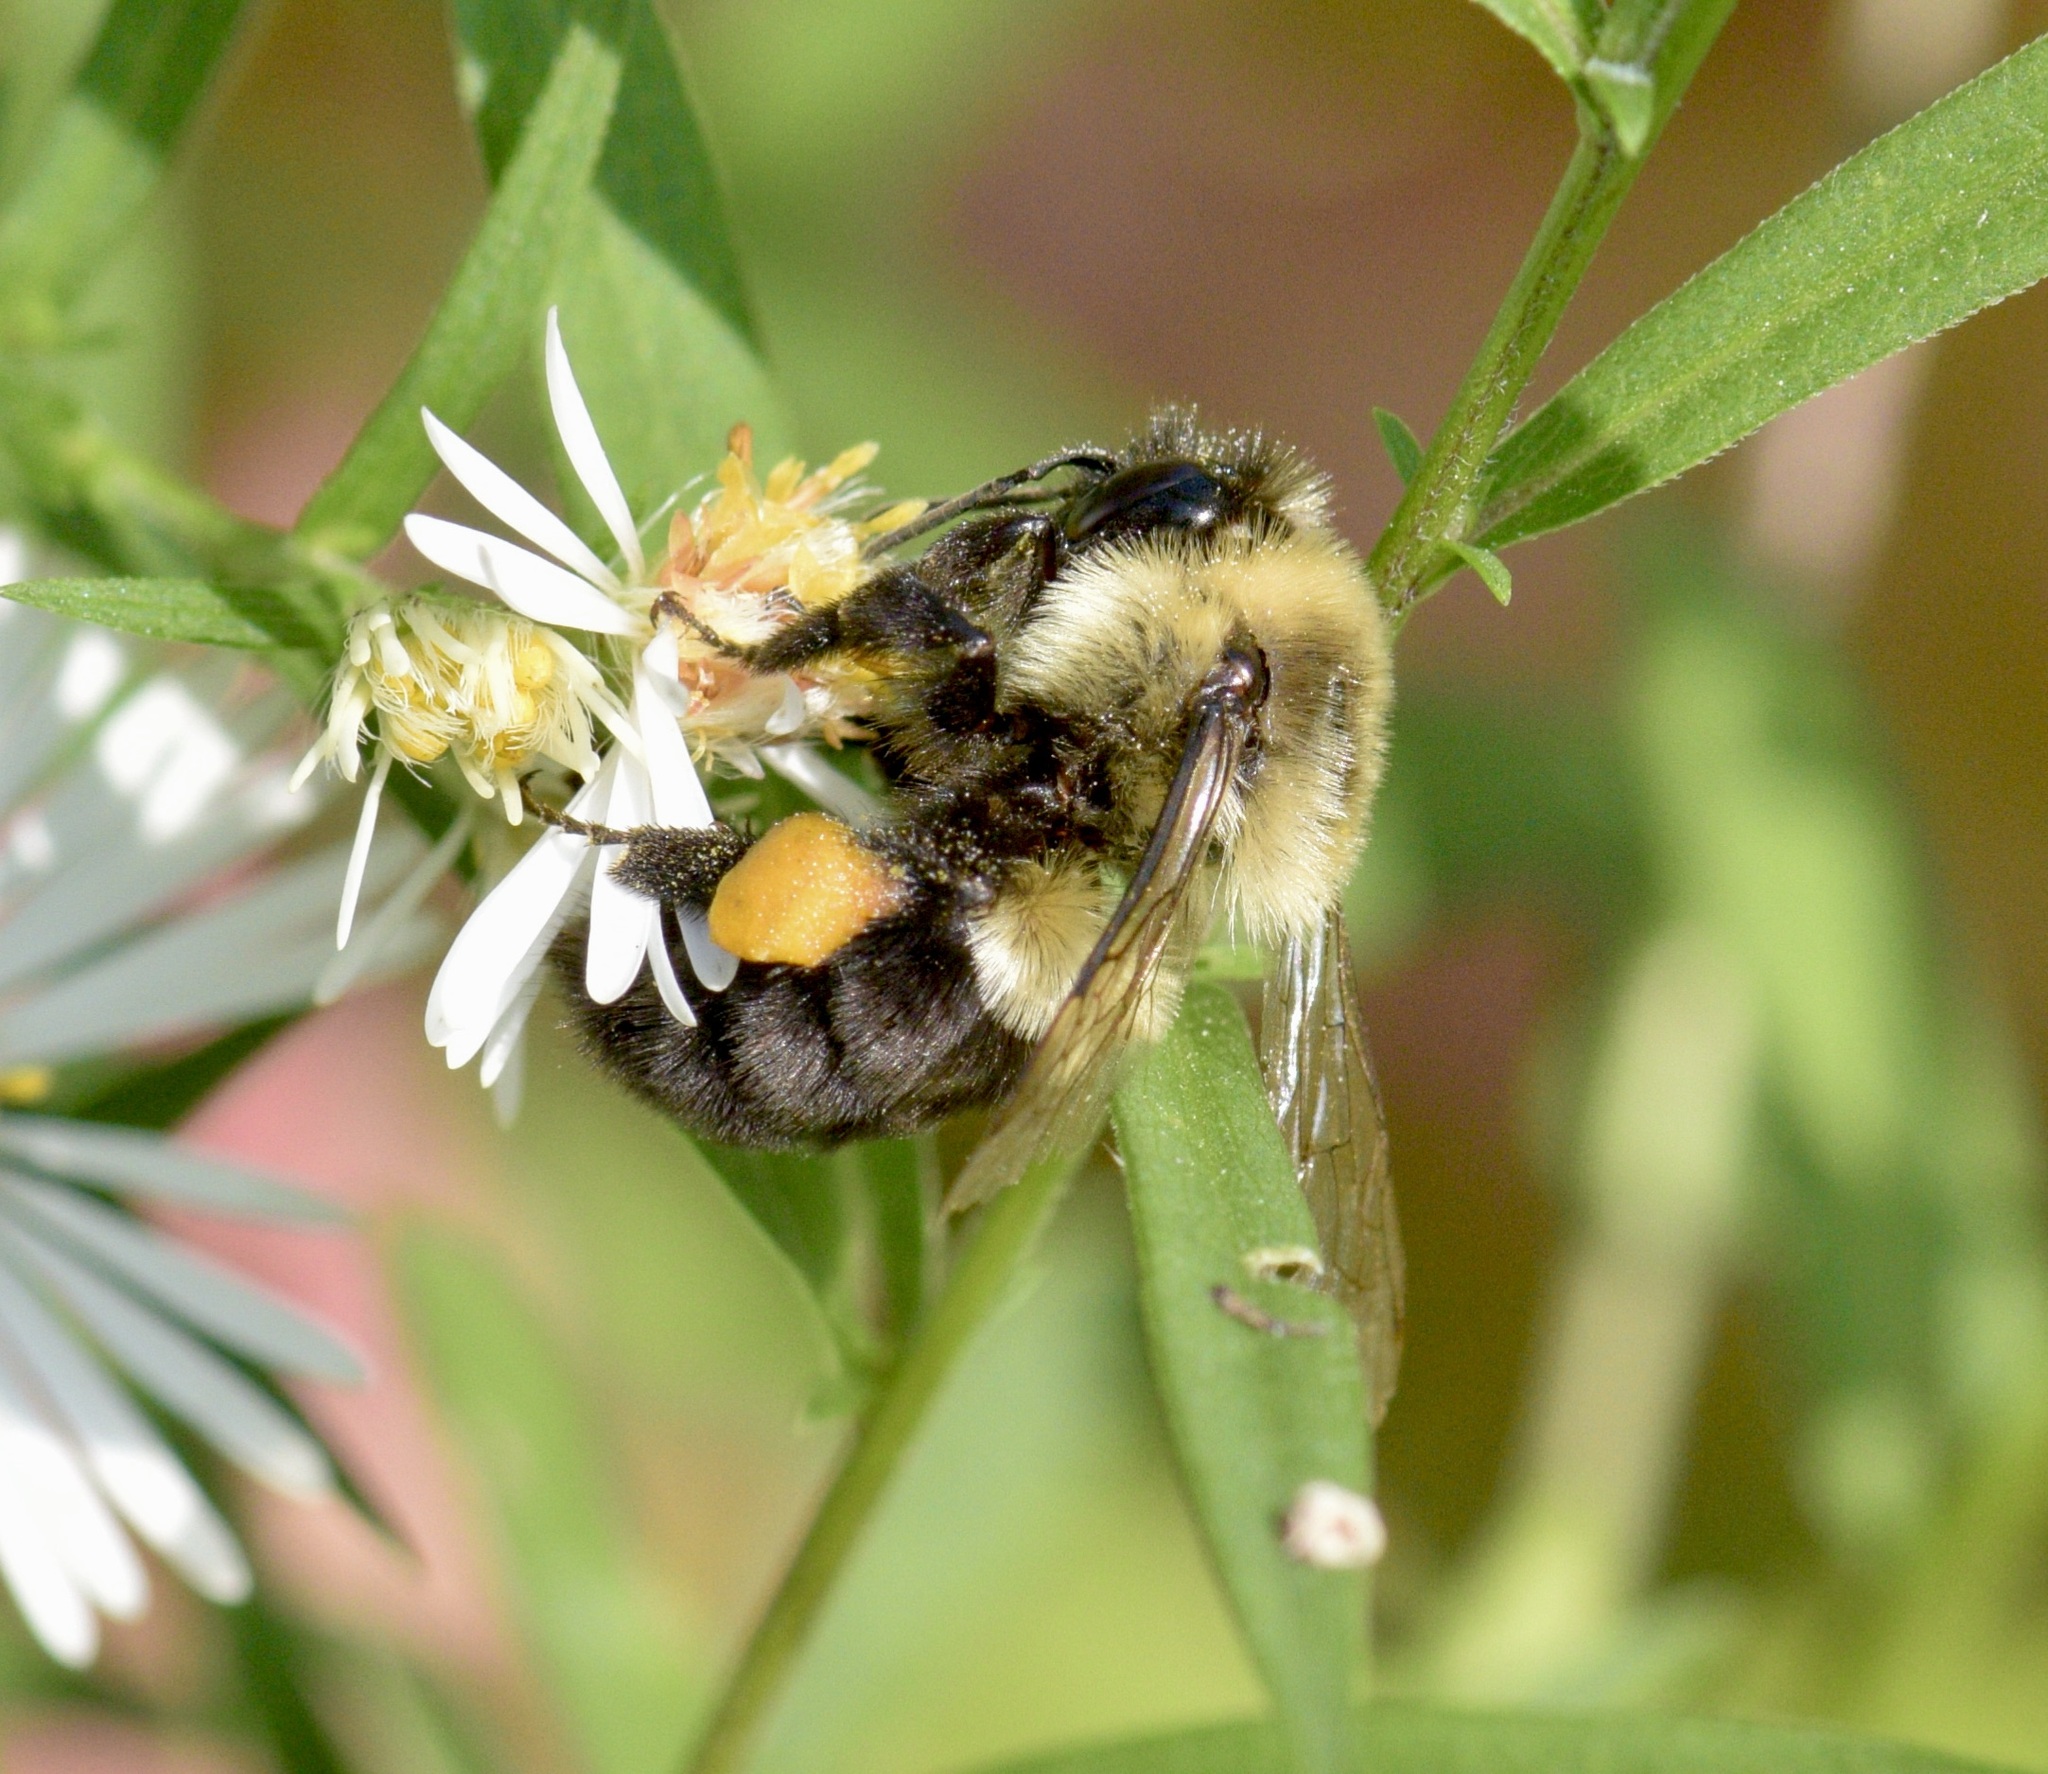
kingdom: Animalia
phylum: Arthropoda
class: Insecta
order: Hymenoptera
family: Apidae
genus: Bombus
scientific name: Bombus impatiens
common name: Common eastern bumble bee
